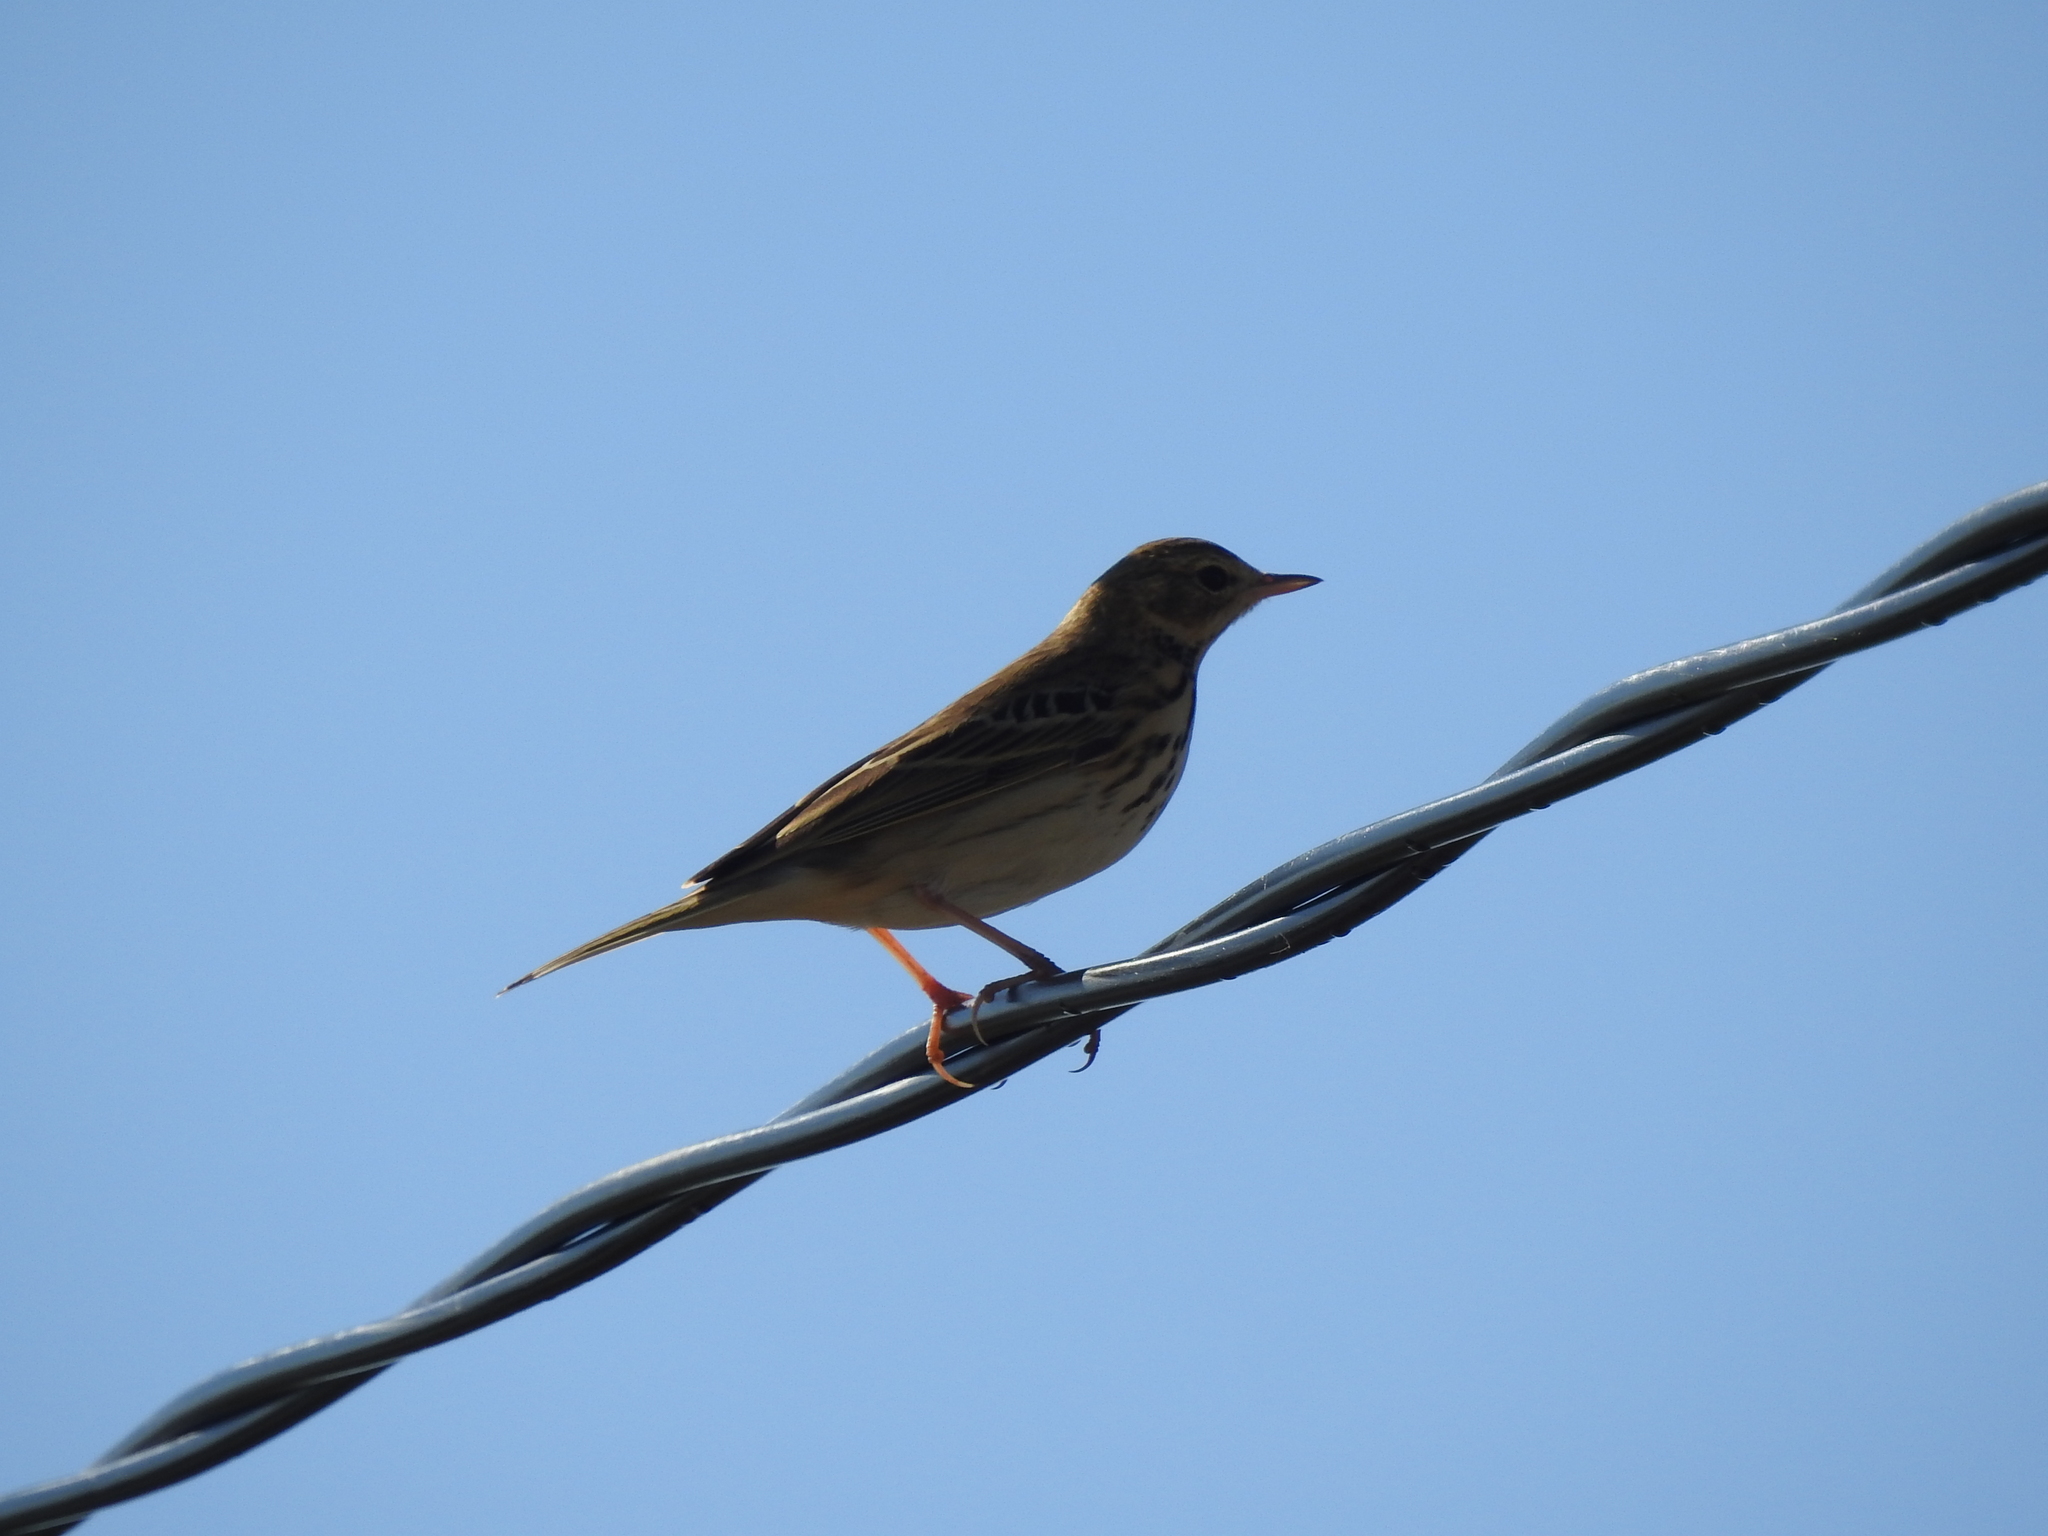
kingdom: Animalia
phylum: Chordata
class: Aves
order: Passeriformes
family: Motacillidae
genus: Anthus
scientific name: Anthus trivialis
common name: Tree pipit
